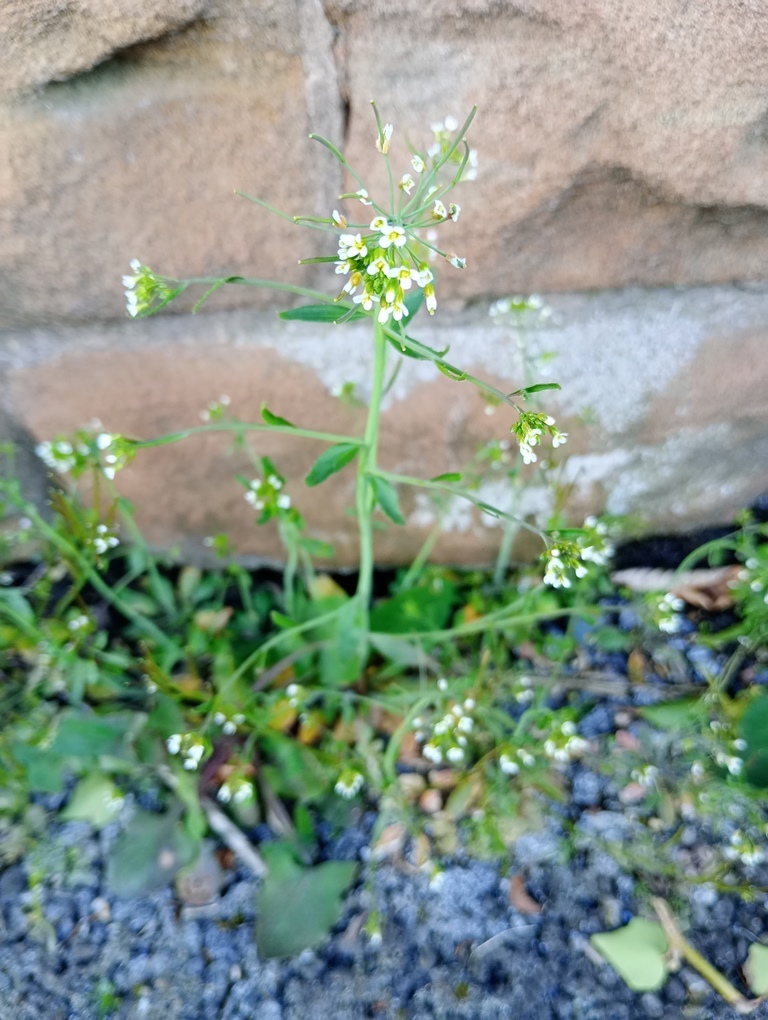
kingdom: Plantae
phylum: Tracheophyta
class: Magnoliopsida
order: Brassicales
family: Brassicaceae
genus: Arabidopsis
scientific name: Arabidopsis thaliana
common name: Thale cress
